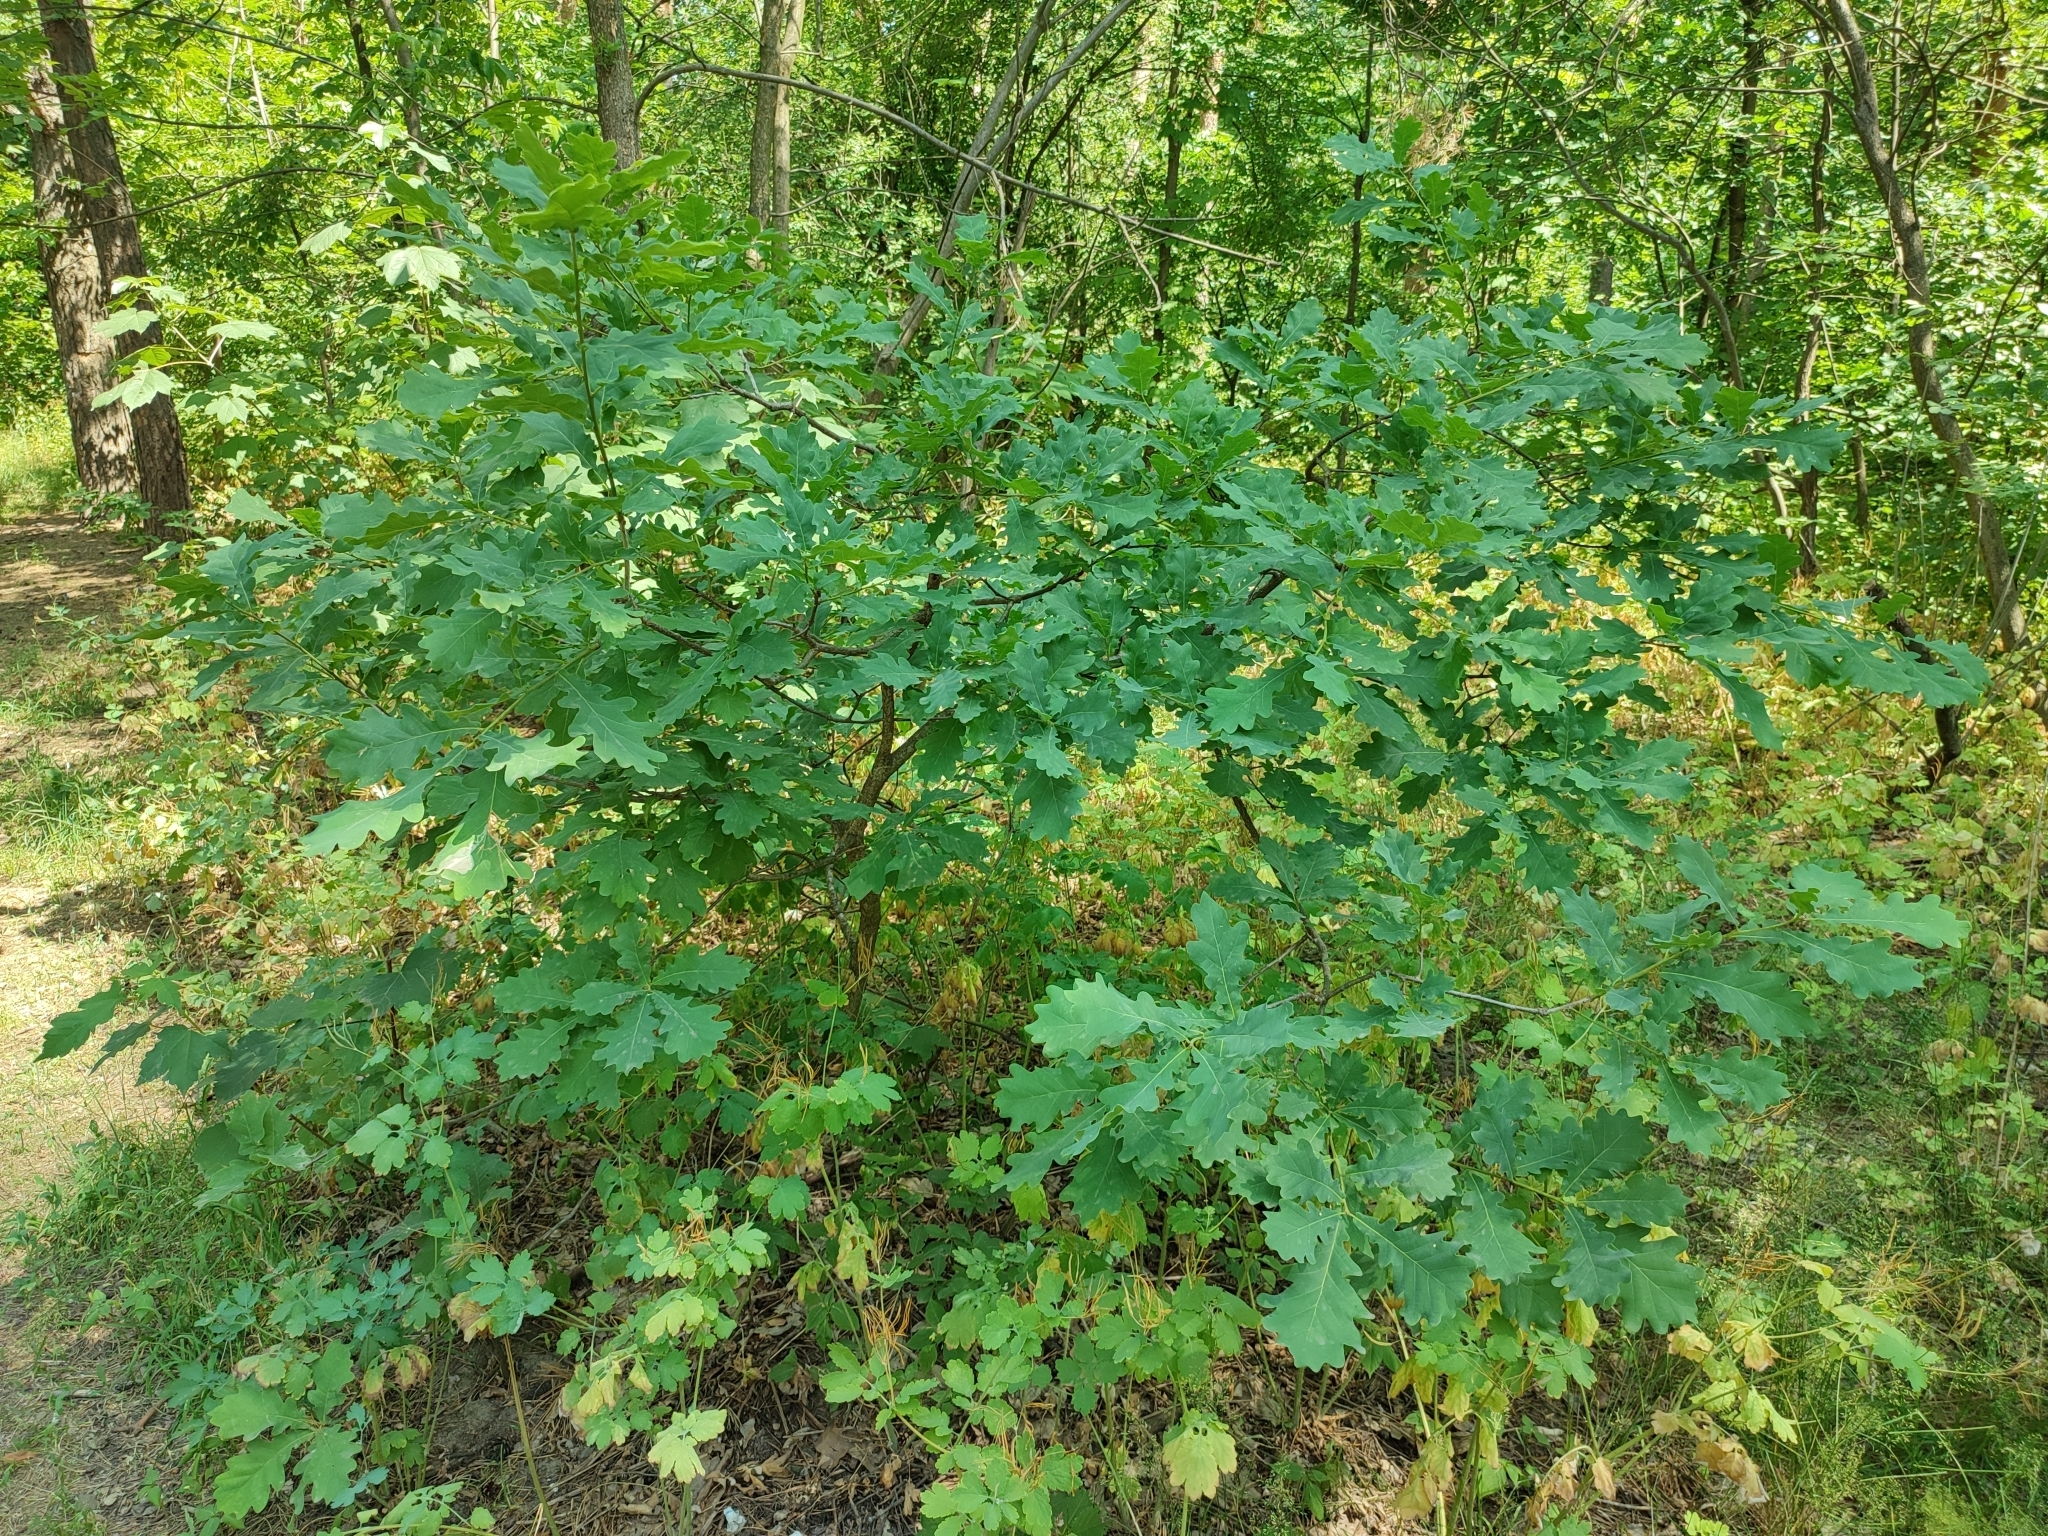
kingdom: Plantae
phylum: Tracheophyta
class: Magnoliopsida
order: Fagales
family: Fagaceae
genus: Quercus
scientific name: Quercus robur
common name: Pedunculate oak
